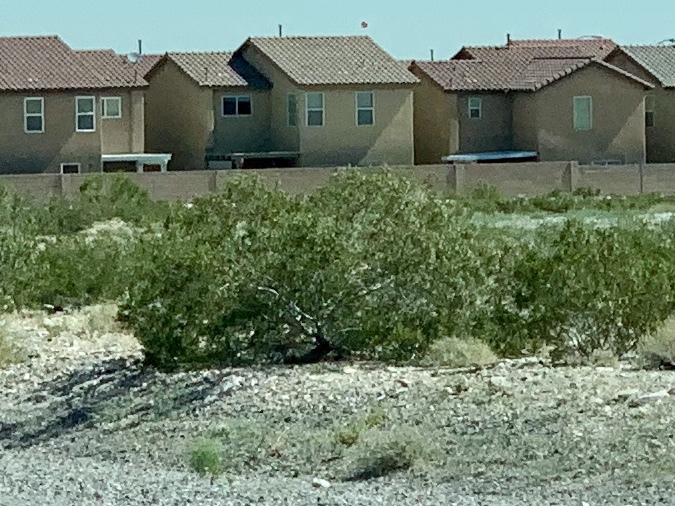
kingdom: Plantae
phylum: Tracheophyta
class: Magnoliopsida
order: Zygophyllales
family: Zygophyllaceae
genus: Larrea
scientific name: Larrea tridentata
